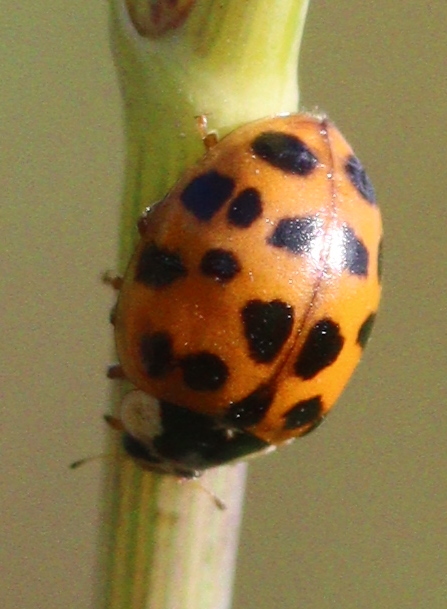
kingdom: Animalia
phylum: Arthropoda
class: Insecta
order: Coleoptera
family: Coccinellidae
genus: Harmonia
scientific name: Harmonia axyridis
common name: Harlequin ladybird
